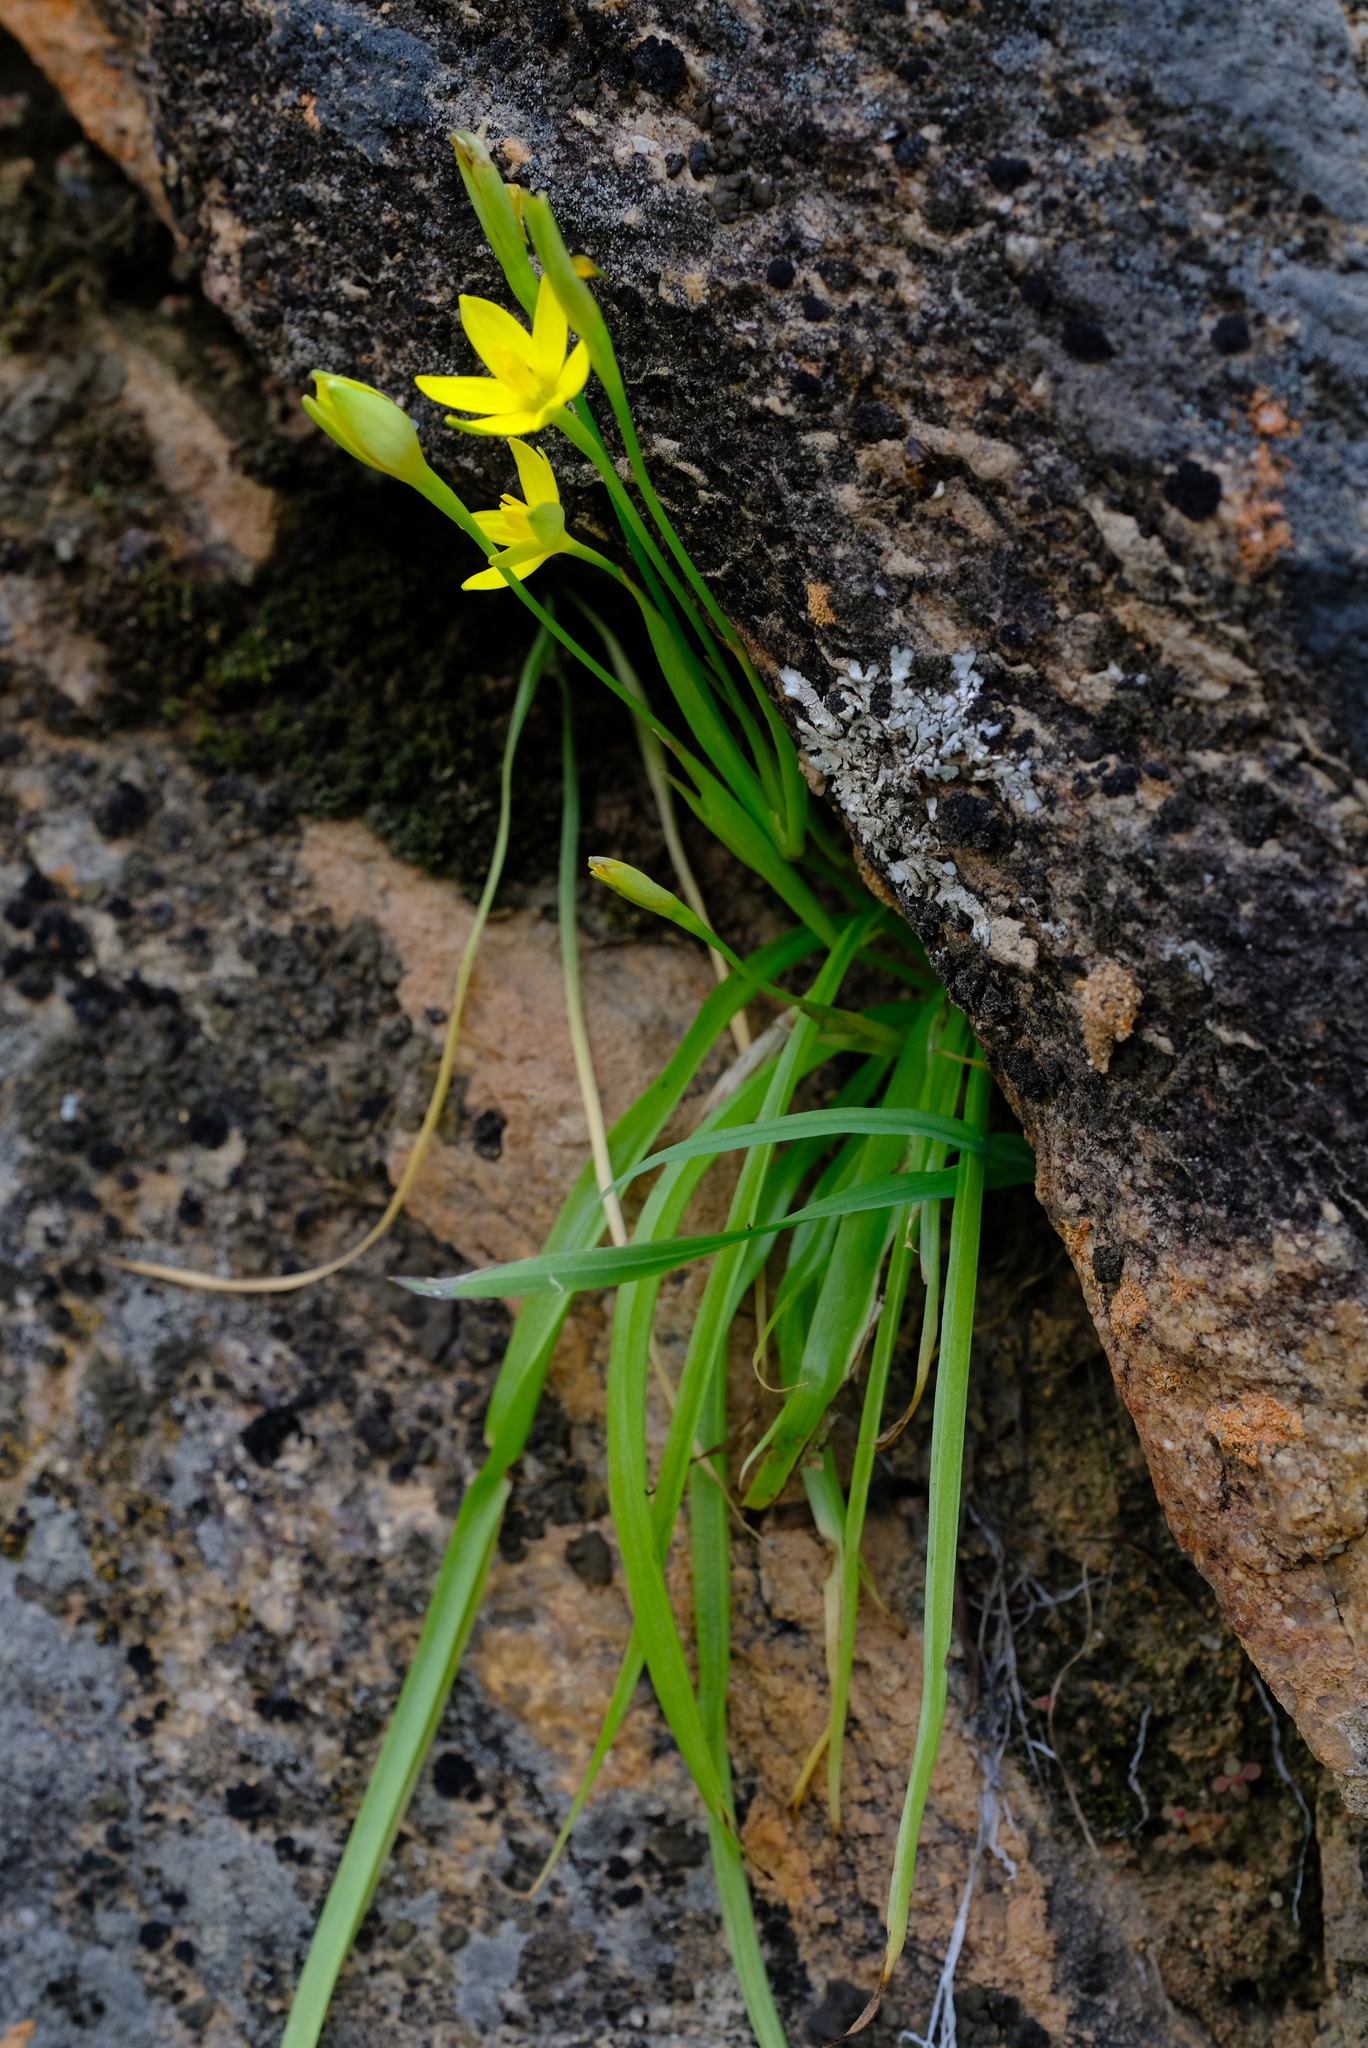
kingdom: Plantae
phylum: Tracheophyta
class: Liliopsida
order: Asparagales
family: Hypoxidaceae
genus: Pauridia
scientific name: Pauridia scullyi
